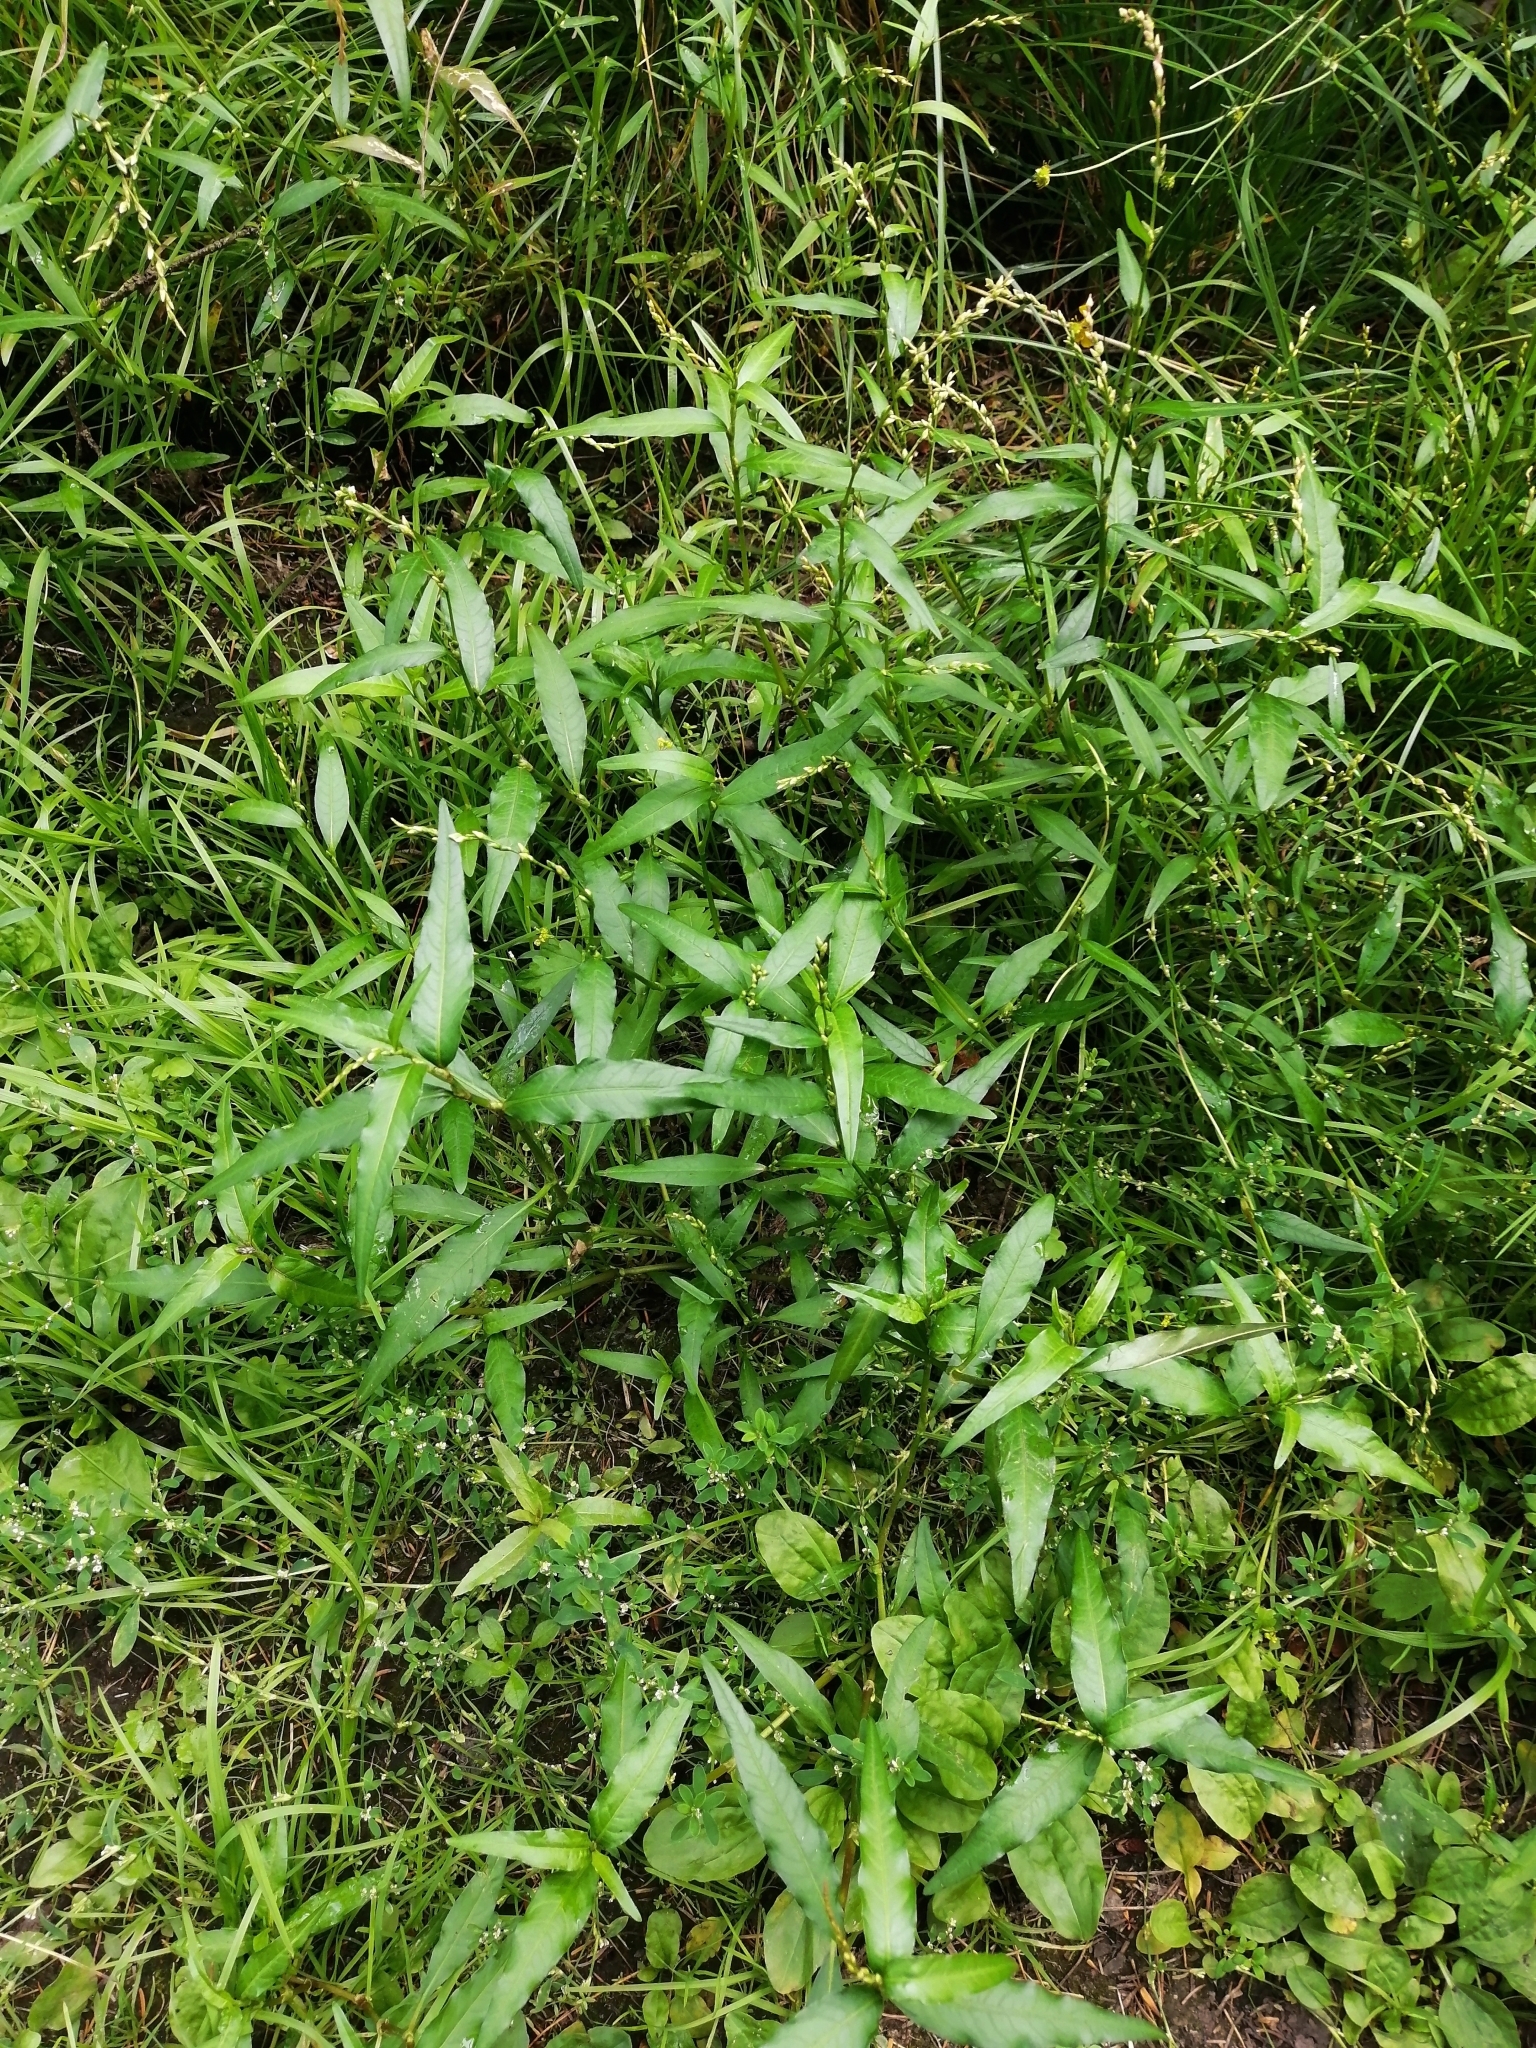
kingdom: Plantae
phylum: Tracheophyta
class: Magnoliopsida
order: Caryophyllales
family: Polygonaceae
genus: Persicaria
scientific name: Persicaria hydropiper
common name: Water-pepper
